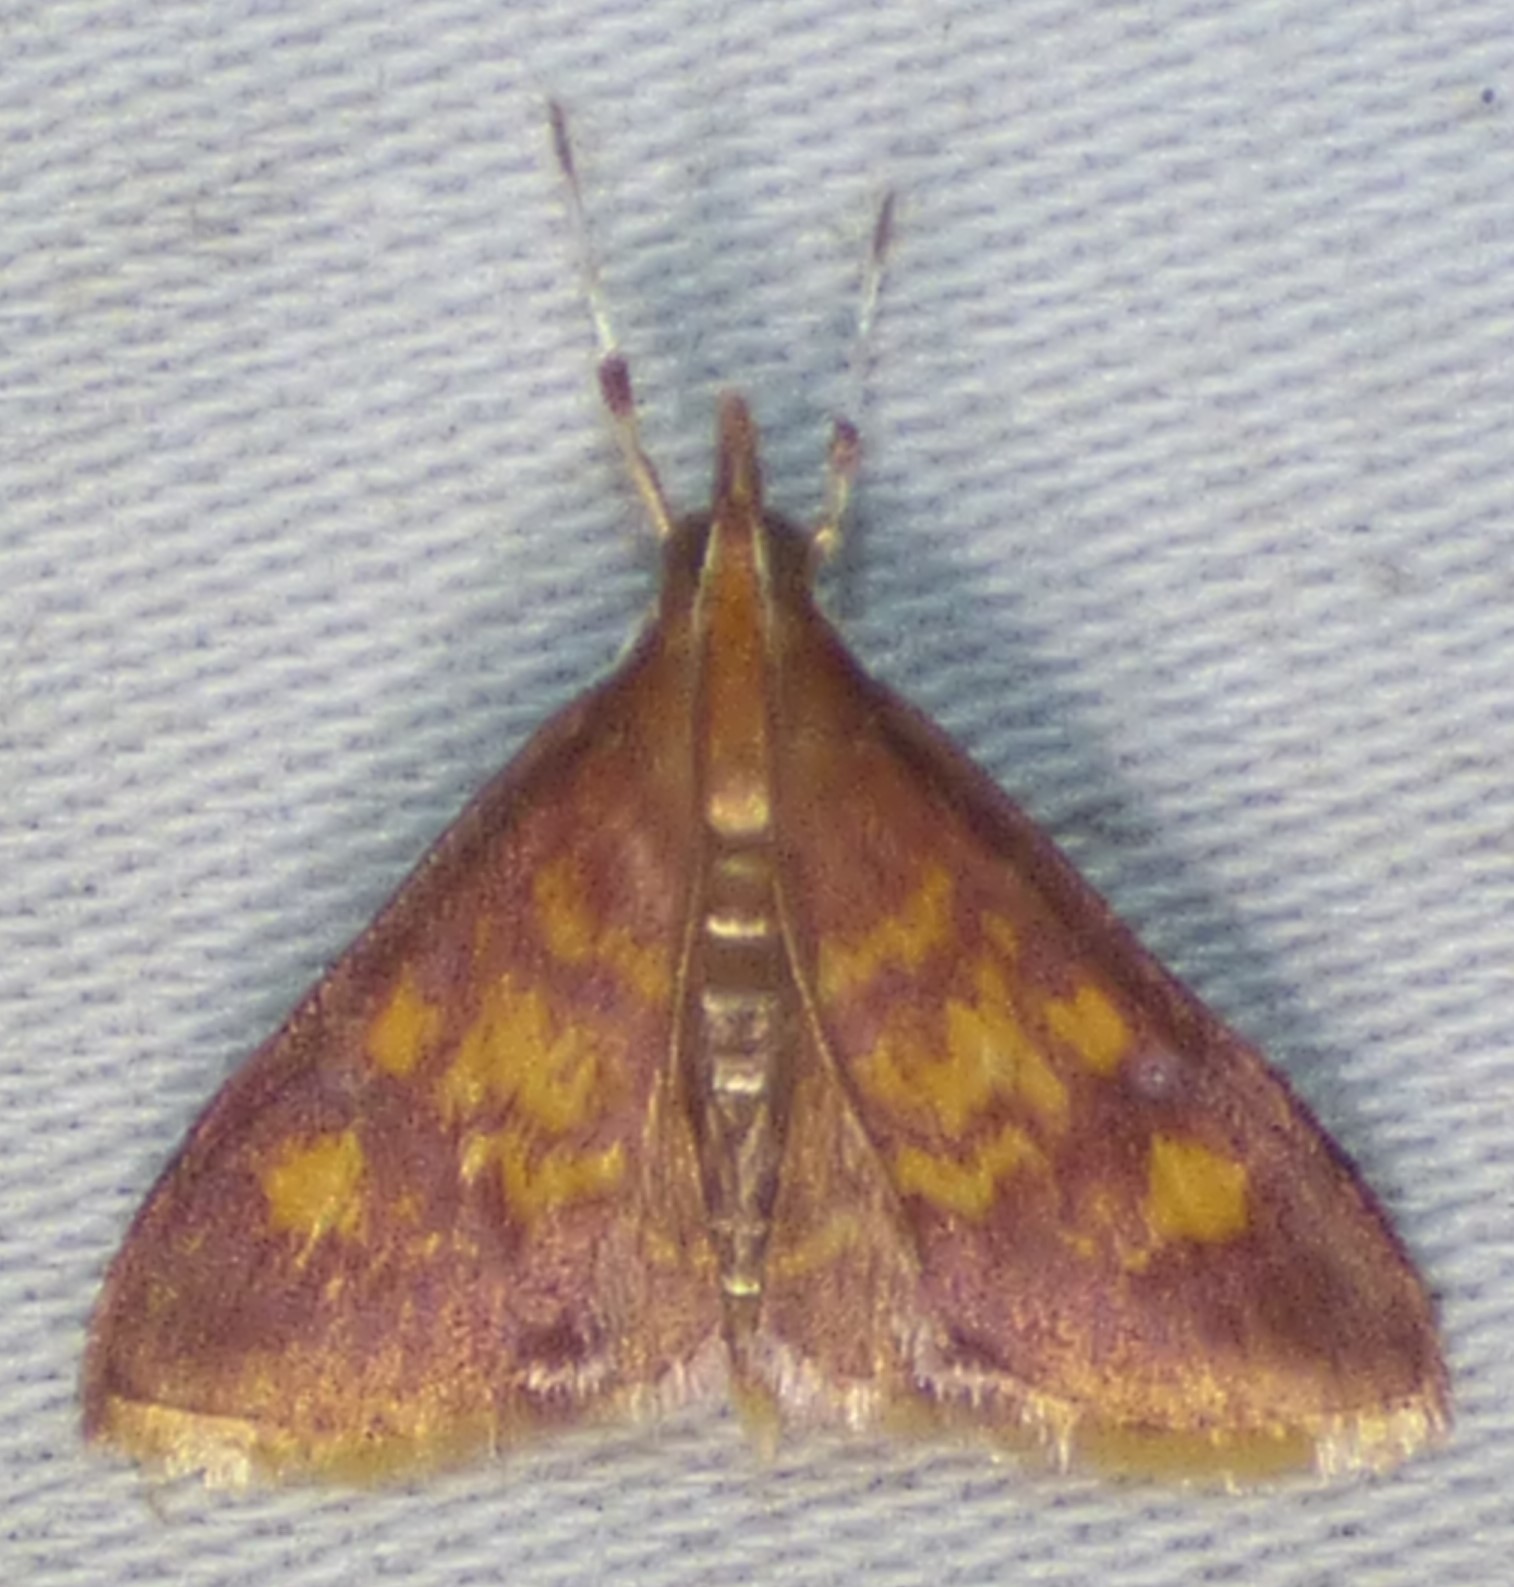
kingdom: Animalia
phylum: Arthropoda
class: Insecta
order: Lepidoptera
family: Crambidae
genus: Pyrausta
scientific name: Pyrausta acrionalis
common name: Mint-loving pyrausta moth
